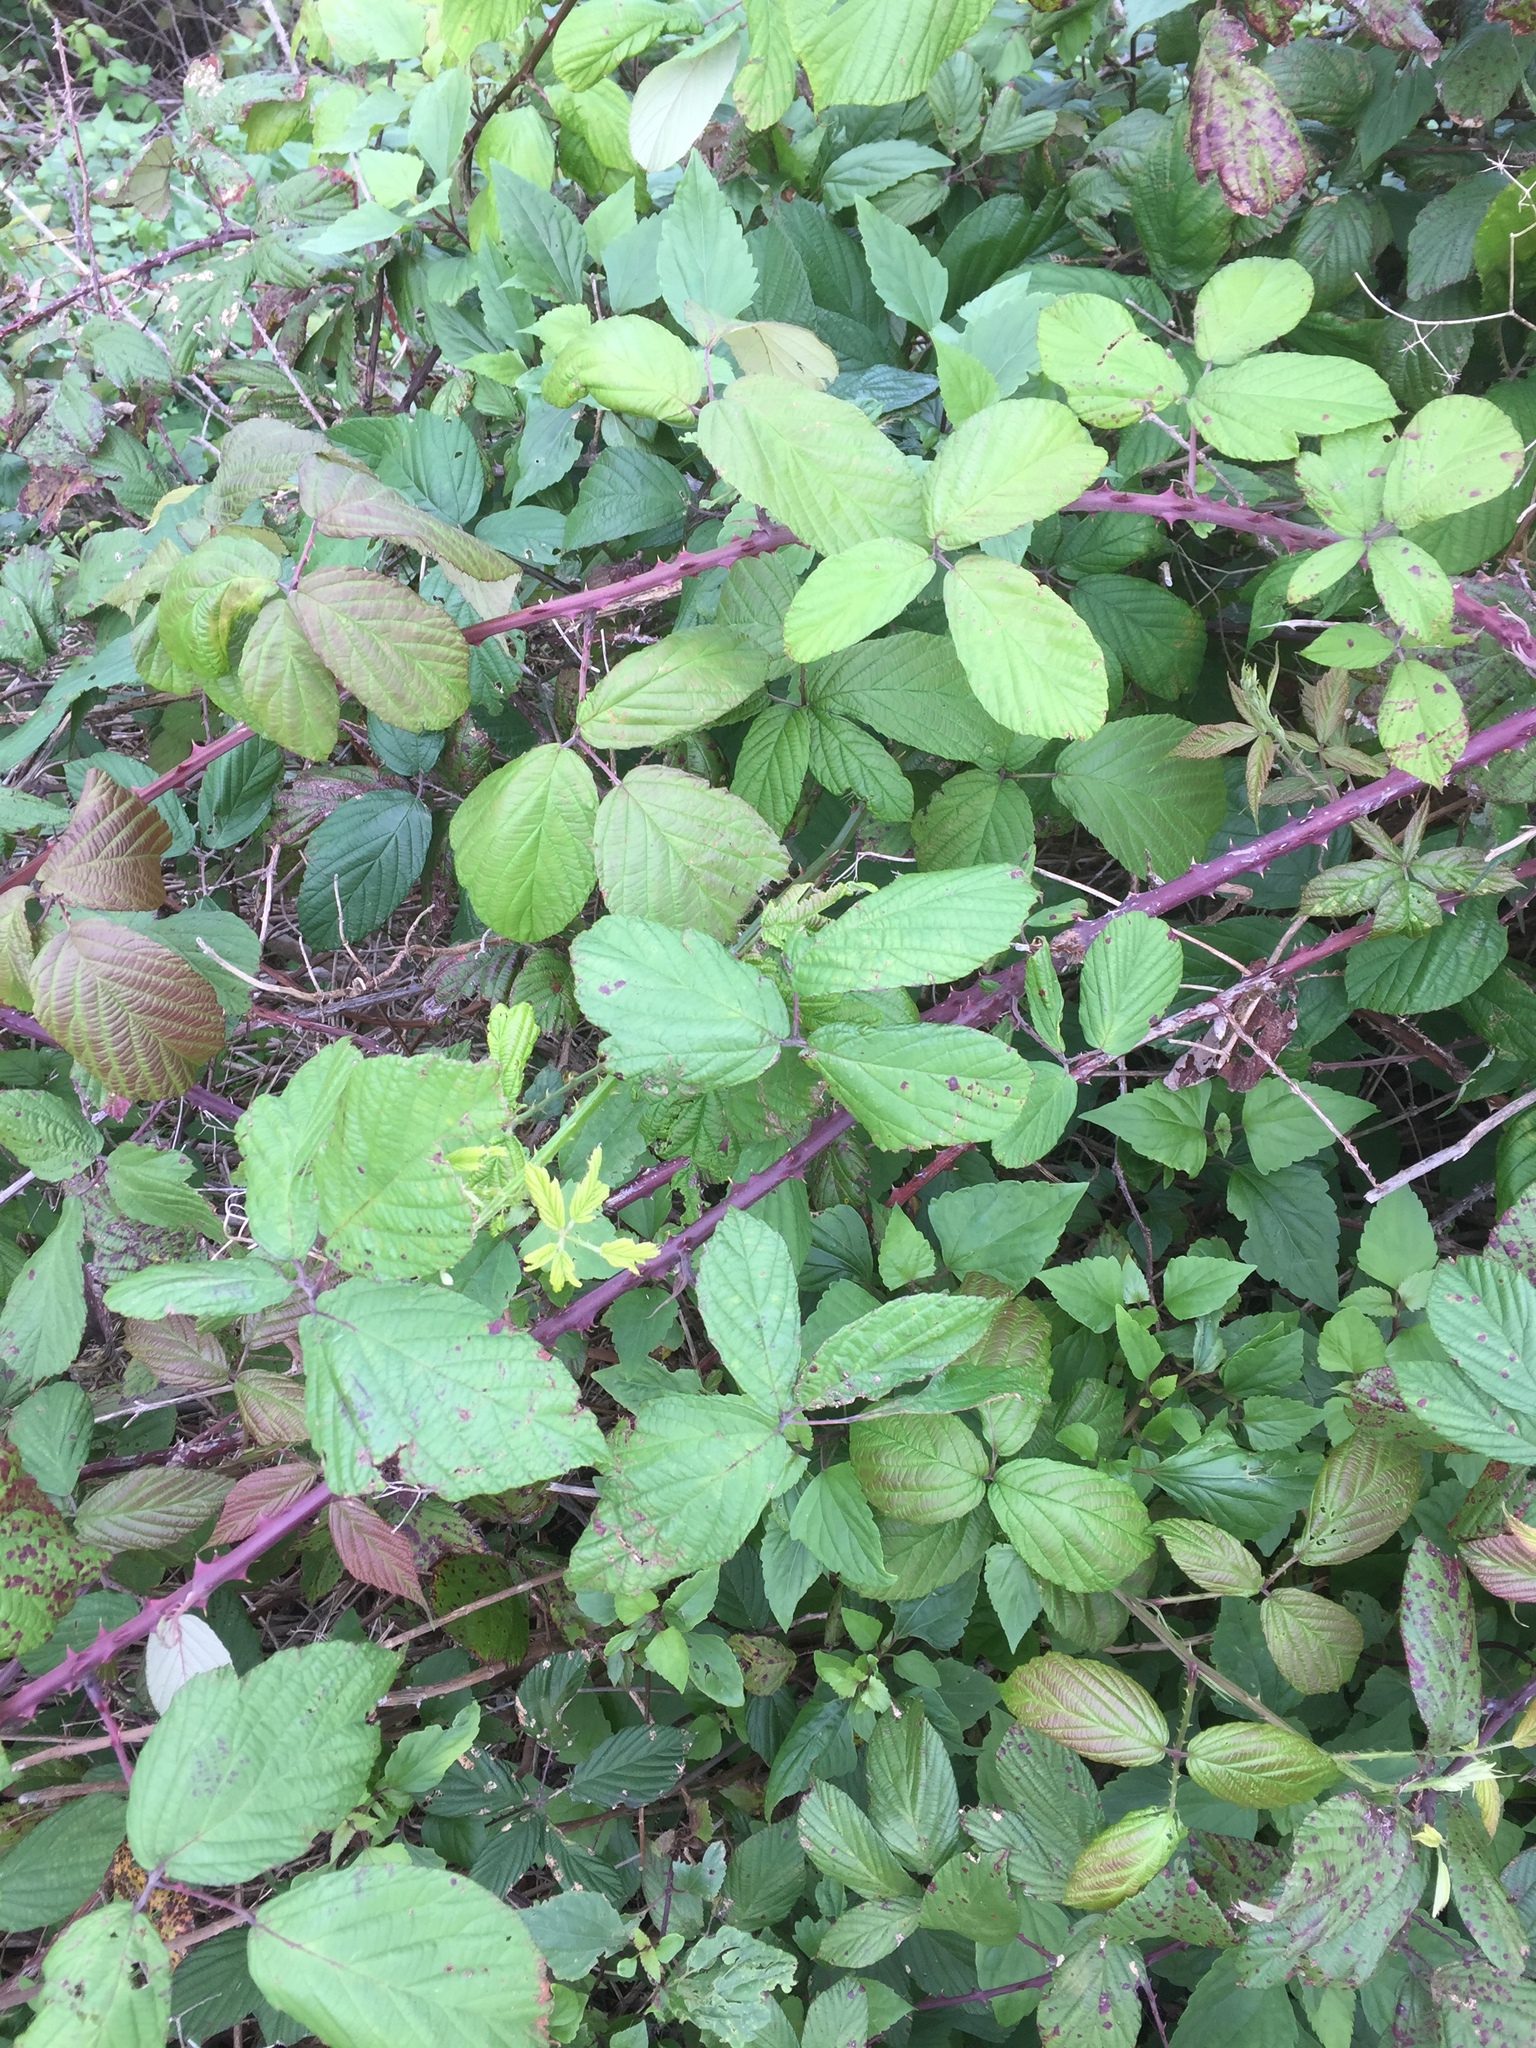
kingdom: Plantae
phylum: Tracheophyta
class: Magnoliopsida
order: Rosales
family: Rosaceae
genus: Rubus
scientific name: Rubus ulmifolius
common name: Elmleaf blackberry
